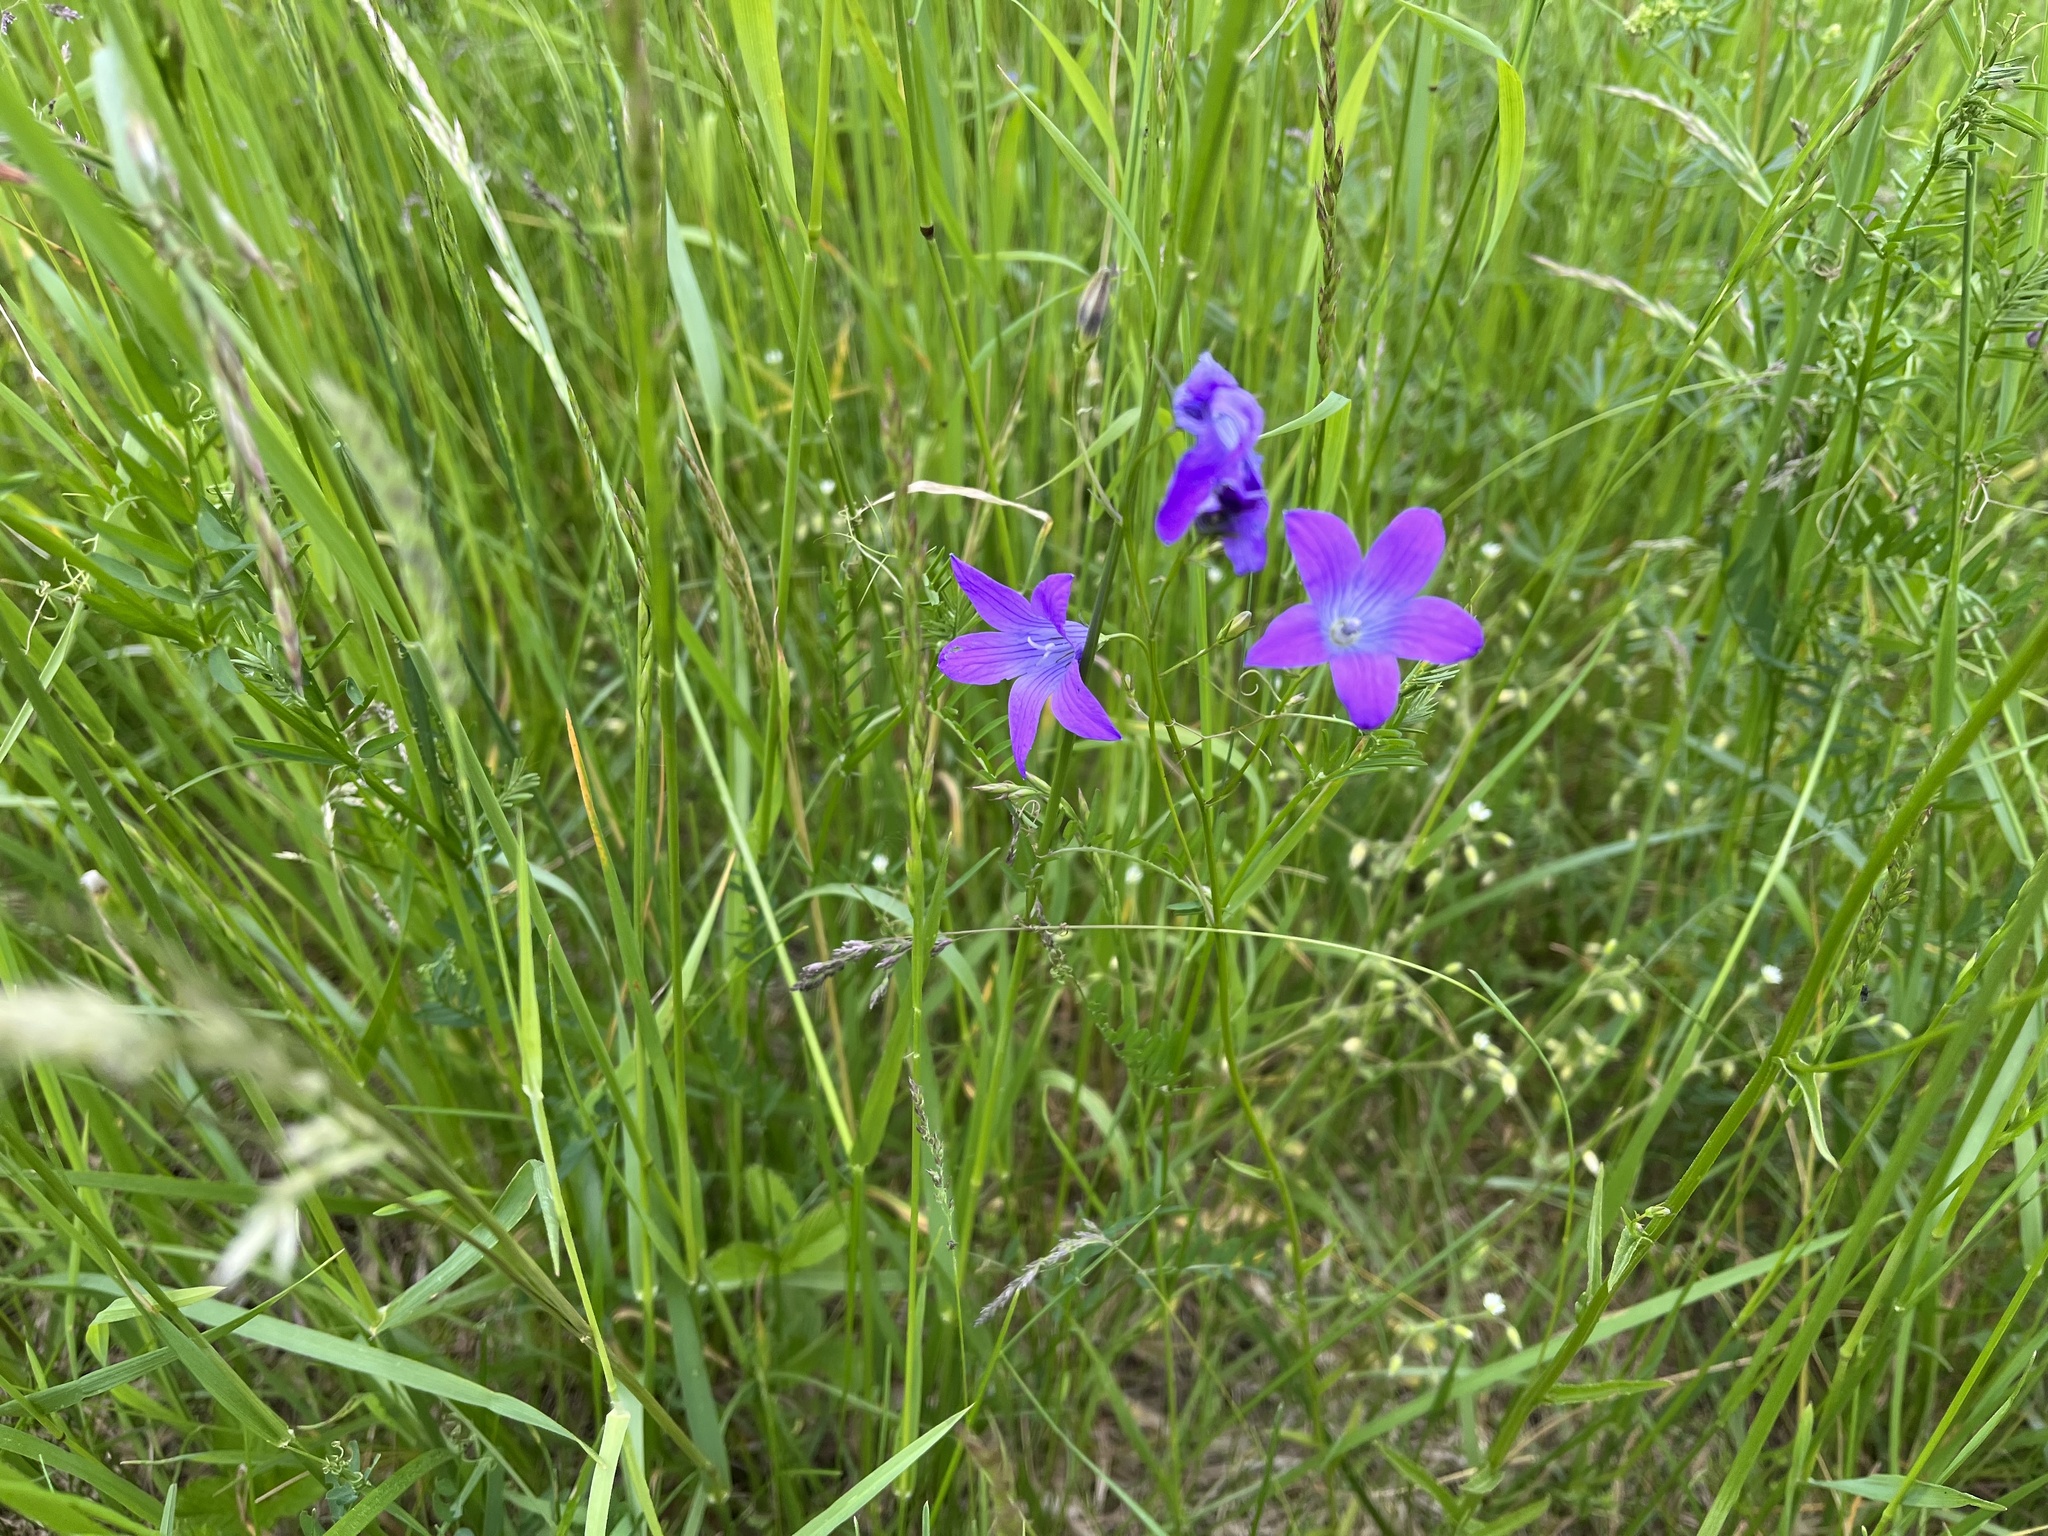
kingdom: Plantae
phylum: Tracheophyta
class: Magnoliopsida
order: Asterales
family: Campanulaceae
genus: Campanula
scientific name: Campanula patula
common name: Spreading bellflower
